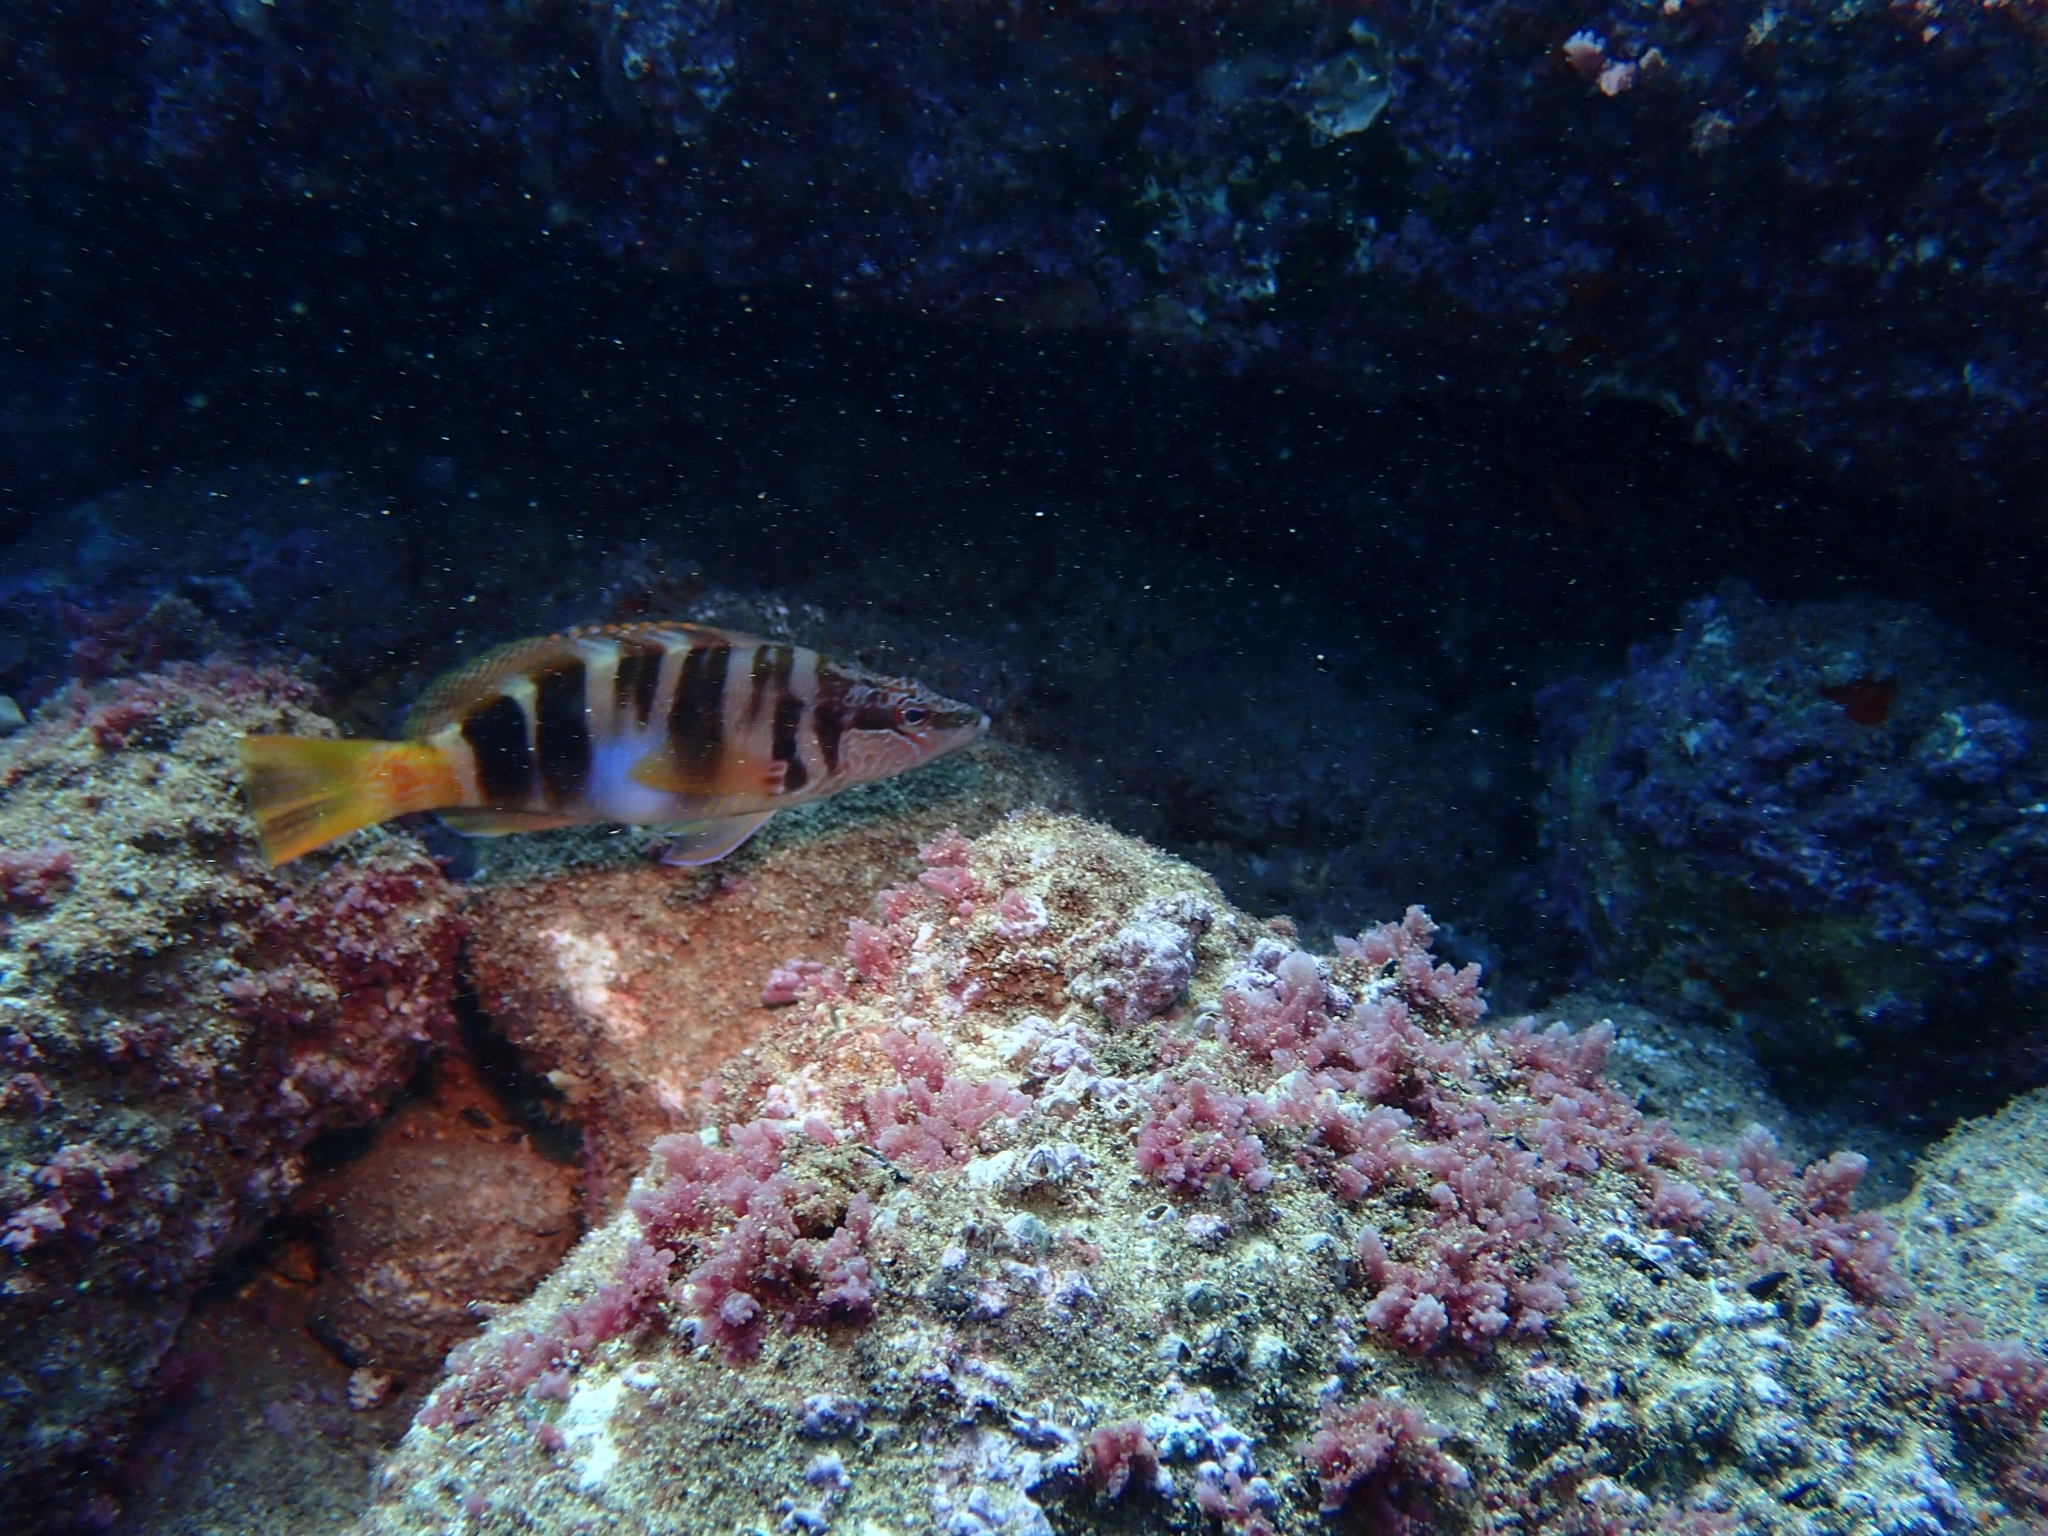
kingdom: Animalia
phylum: Chordata
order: Perciformes
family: Serranidae
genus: Serranus
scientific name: Serranus scriba
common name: Painted comber
